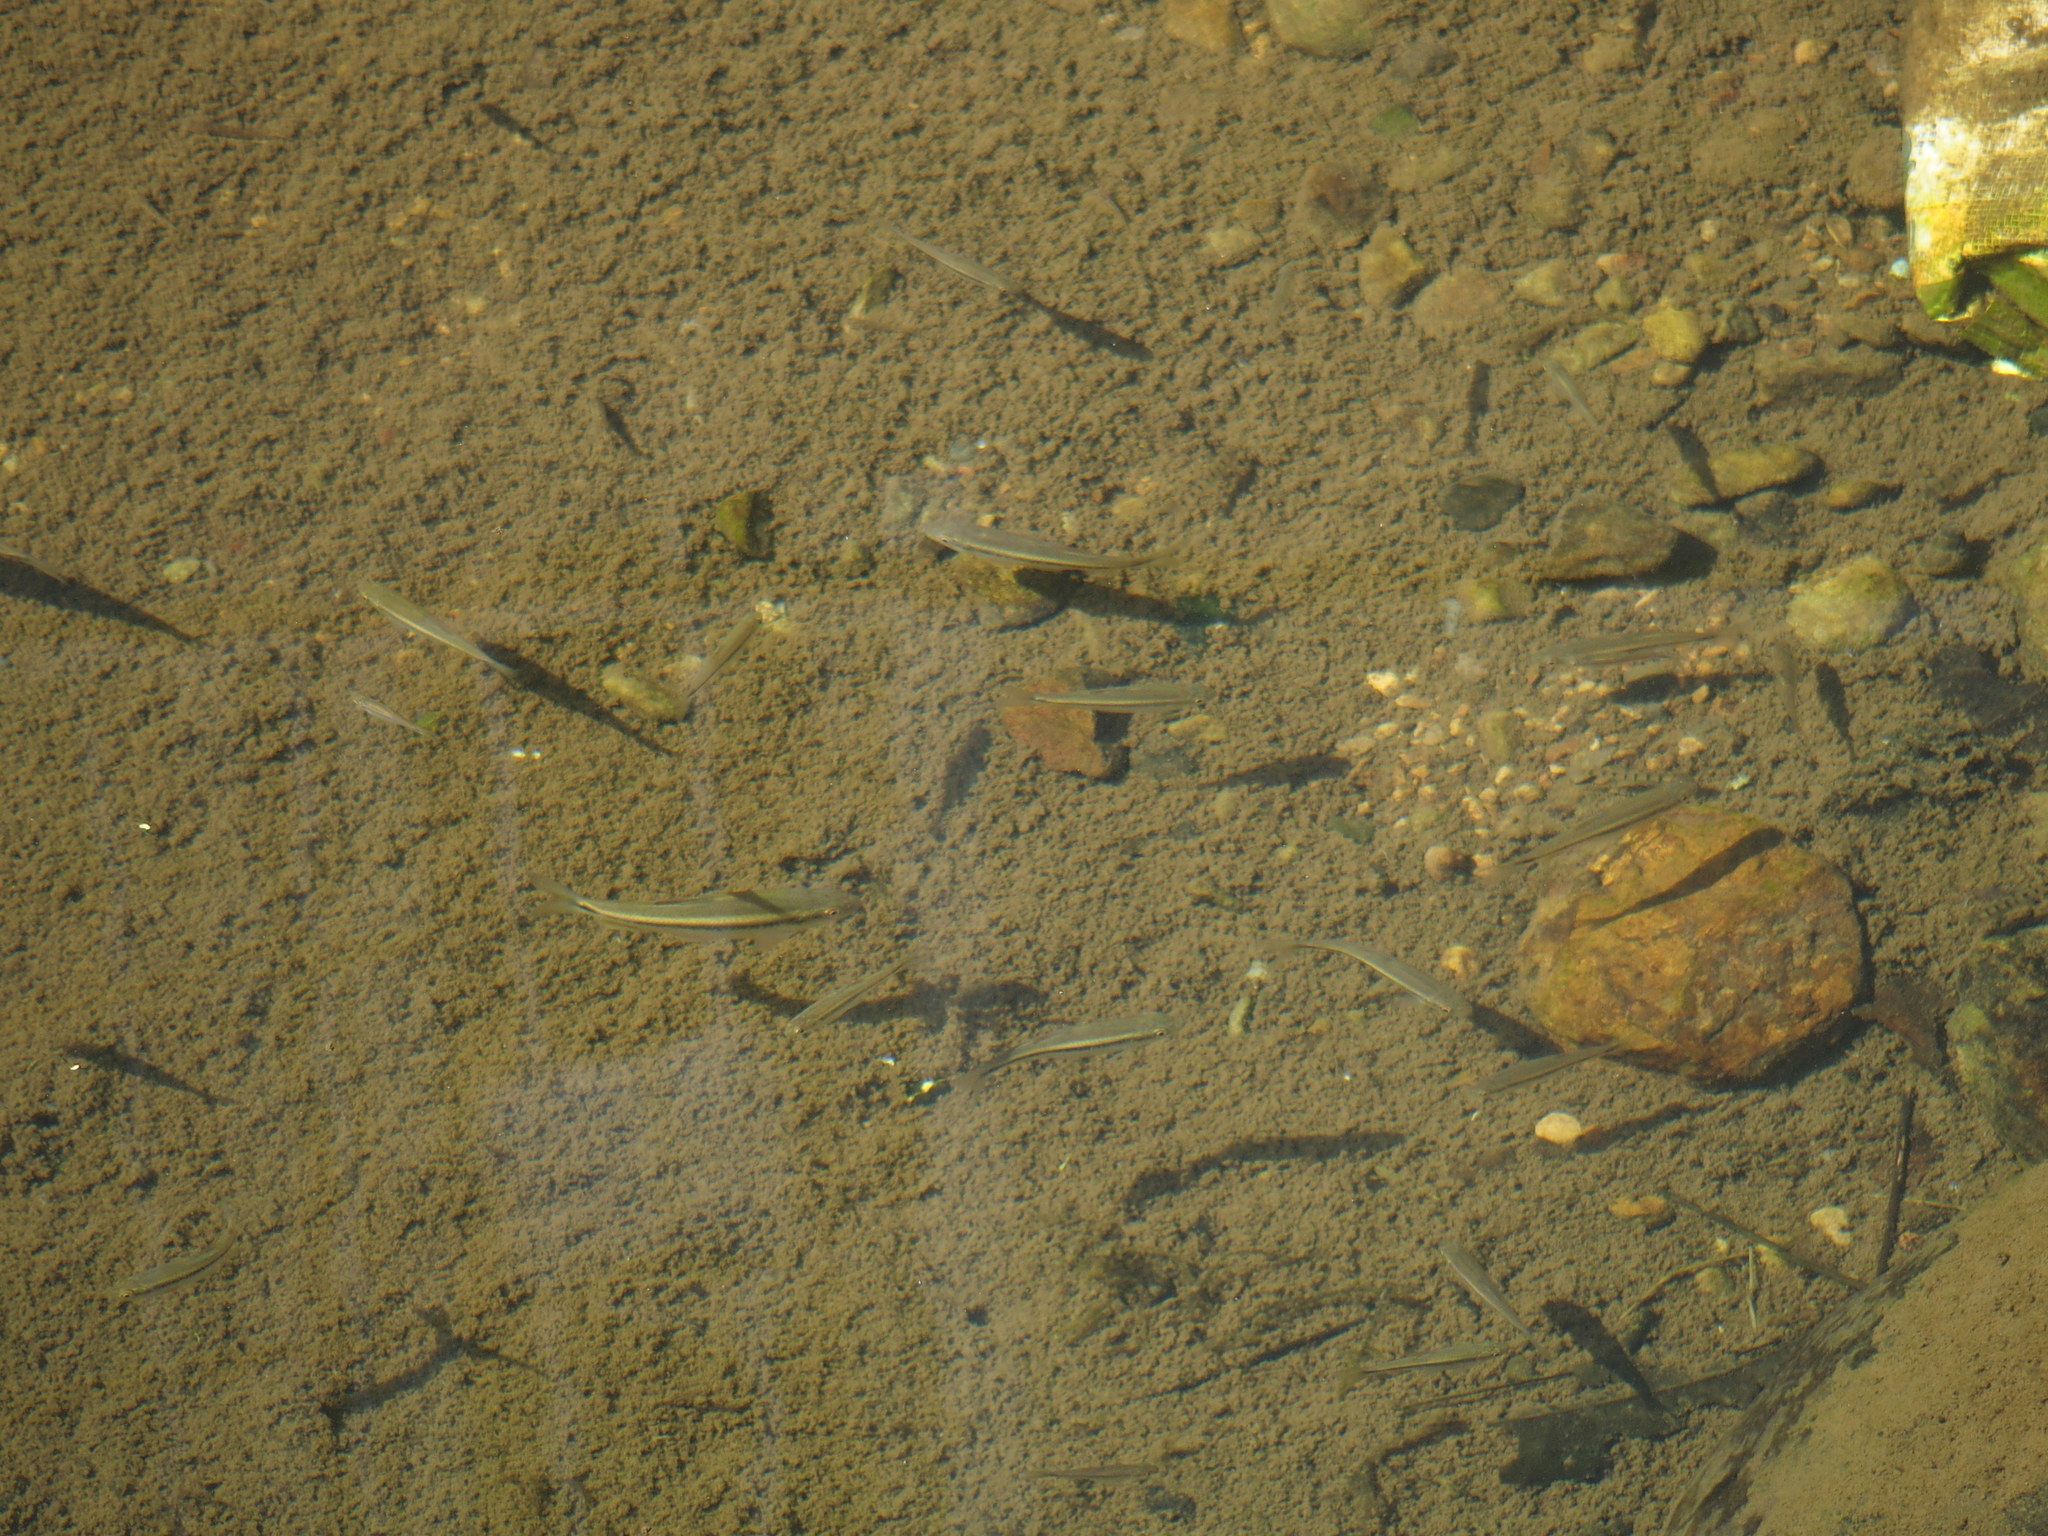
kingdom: Animalia
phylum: Chordata
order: Cypriniformes
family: Cyprinidae
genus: Candidia
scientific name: Candidia barbata
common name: Lake candidus dace
